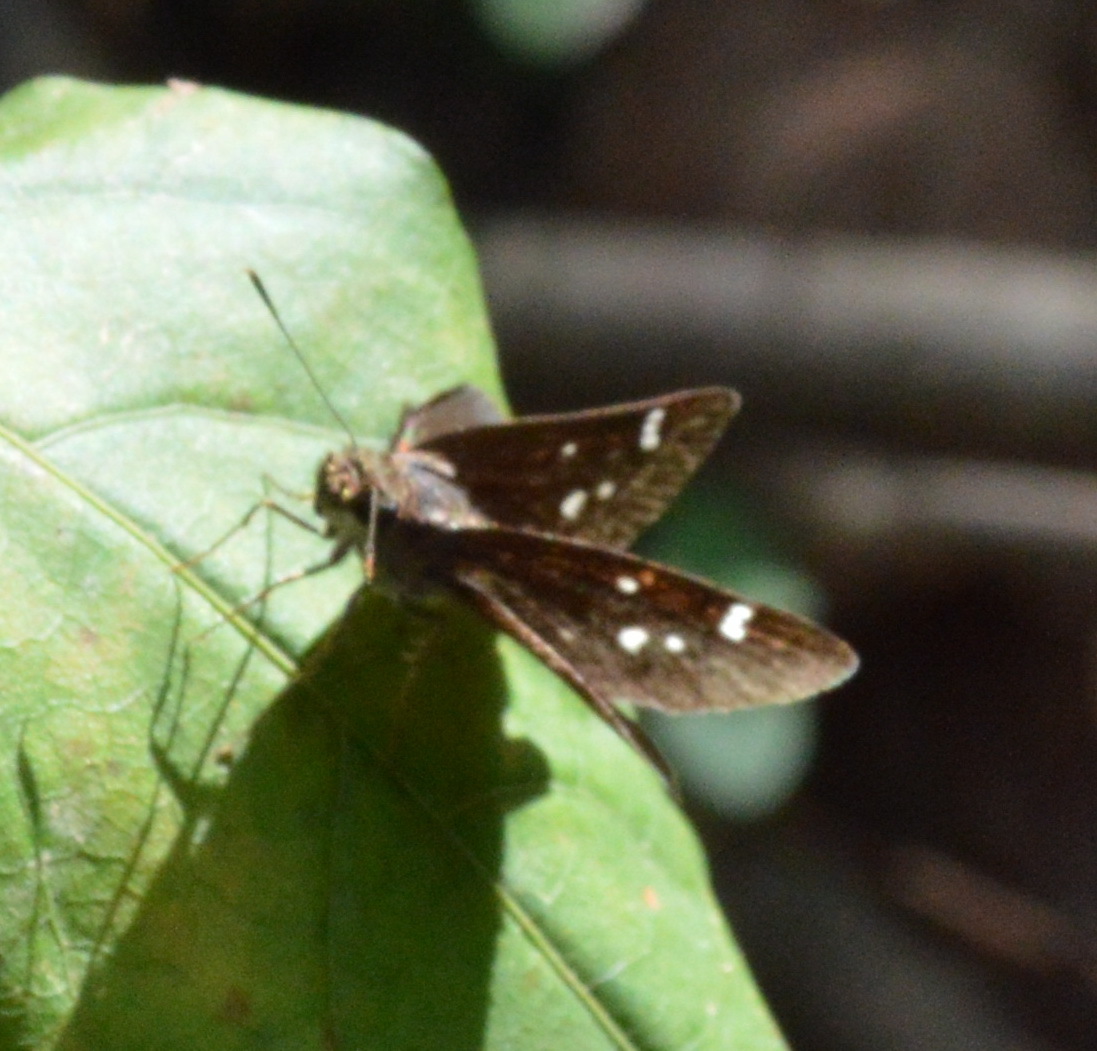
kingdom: Animalia
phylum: Arthropoda
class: Insecta
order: Lepidoptera
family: Hesperiidae
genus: Lerema
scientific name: Lerema accius
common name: Clouded skipper
